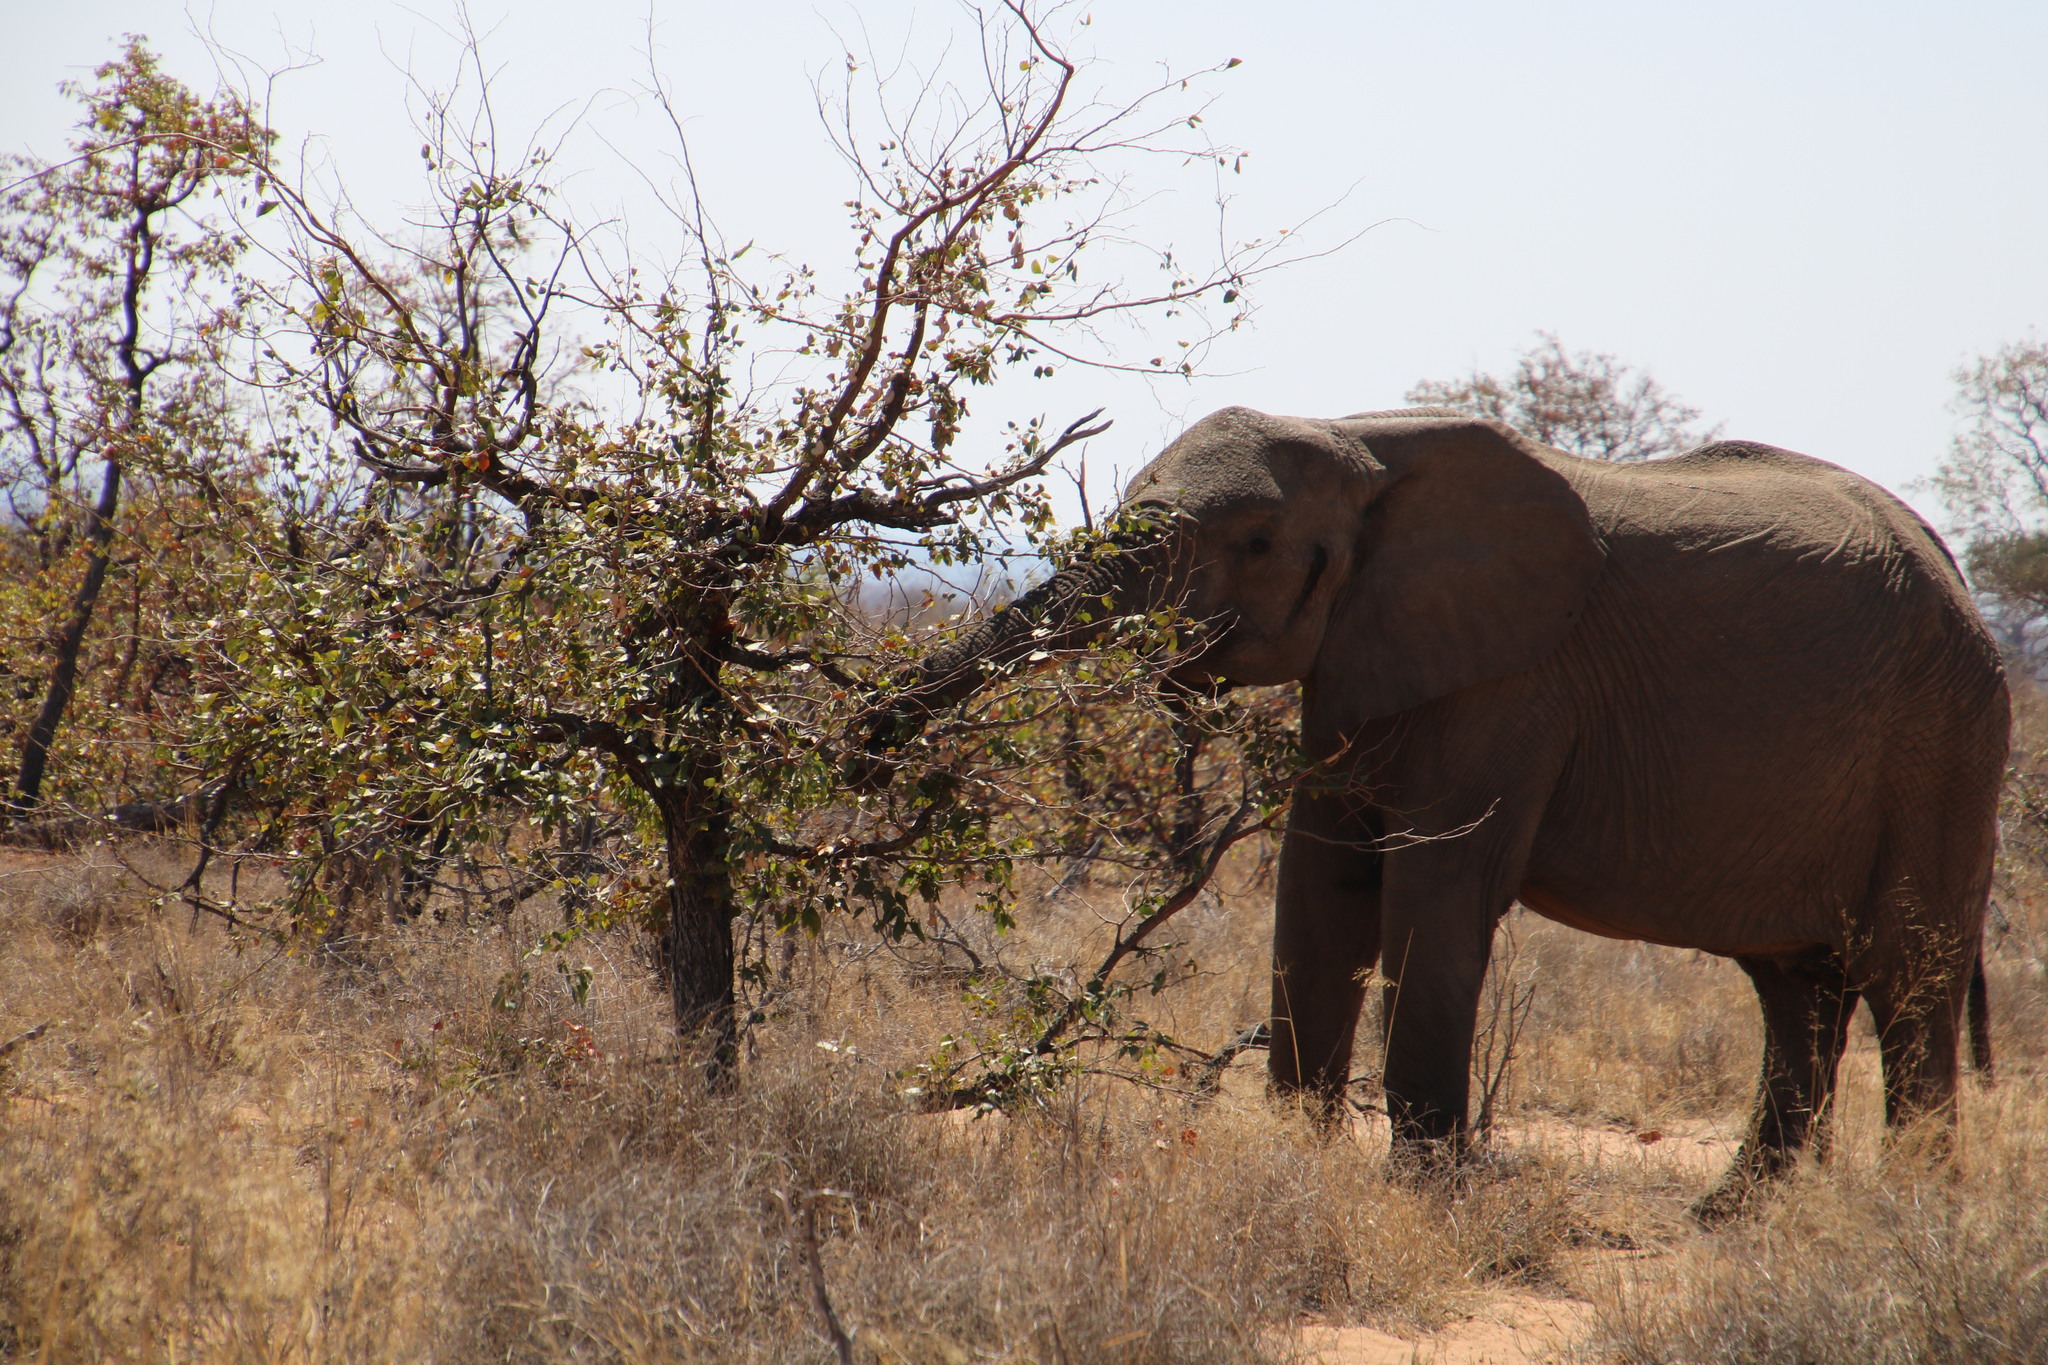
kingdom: Plantae
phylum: Tracheophyta
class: Magnoliopsida
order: Fabales
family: Fabaceae
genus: Colophospermum
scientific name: Colophospermum mopane
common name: Mopane
